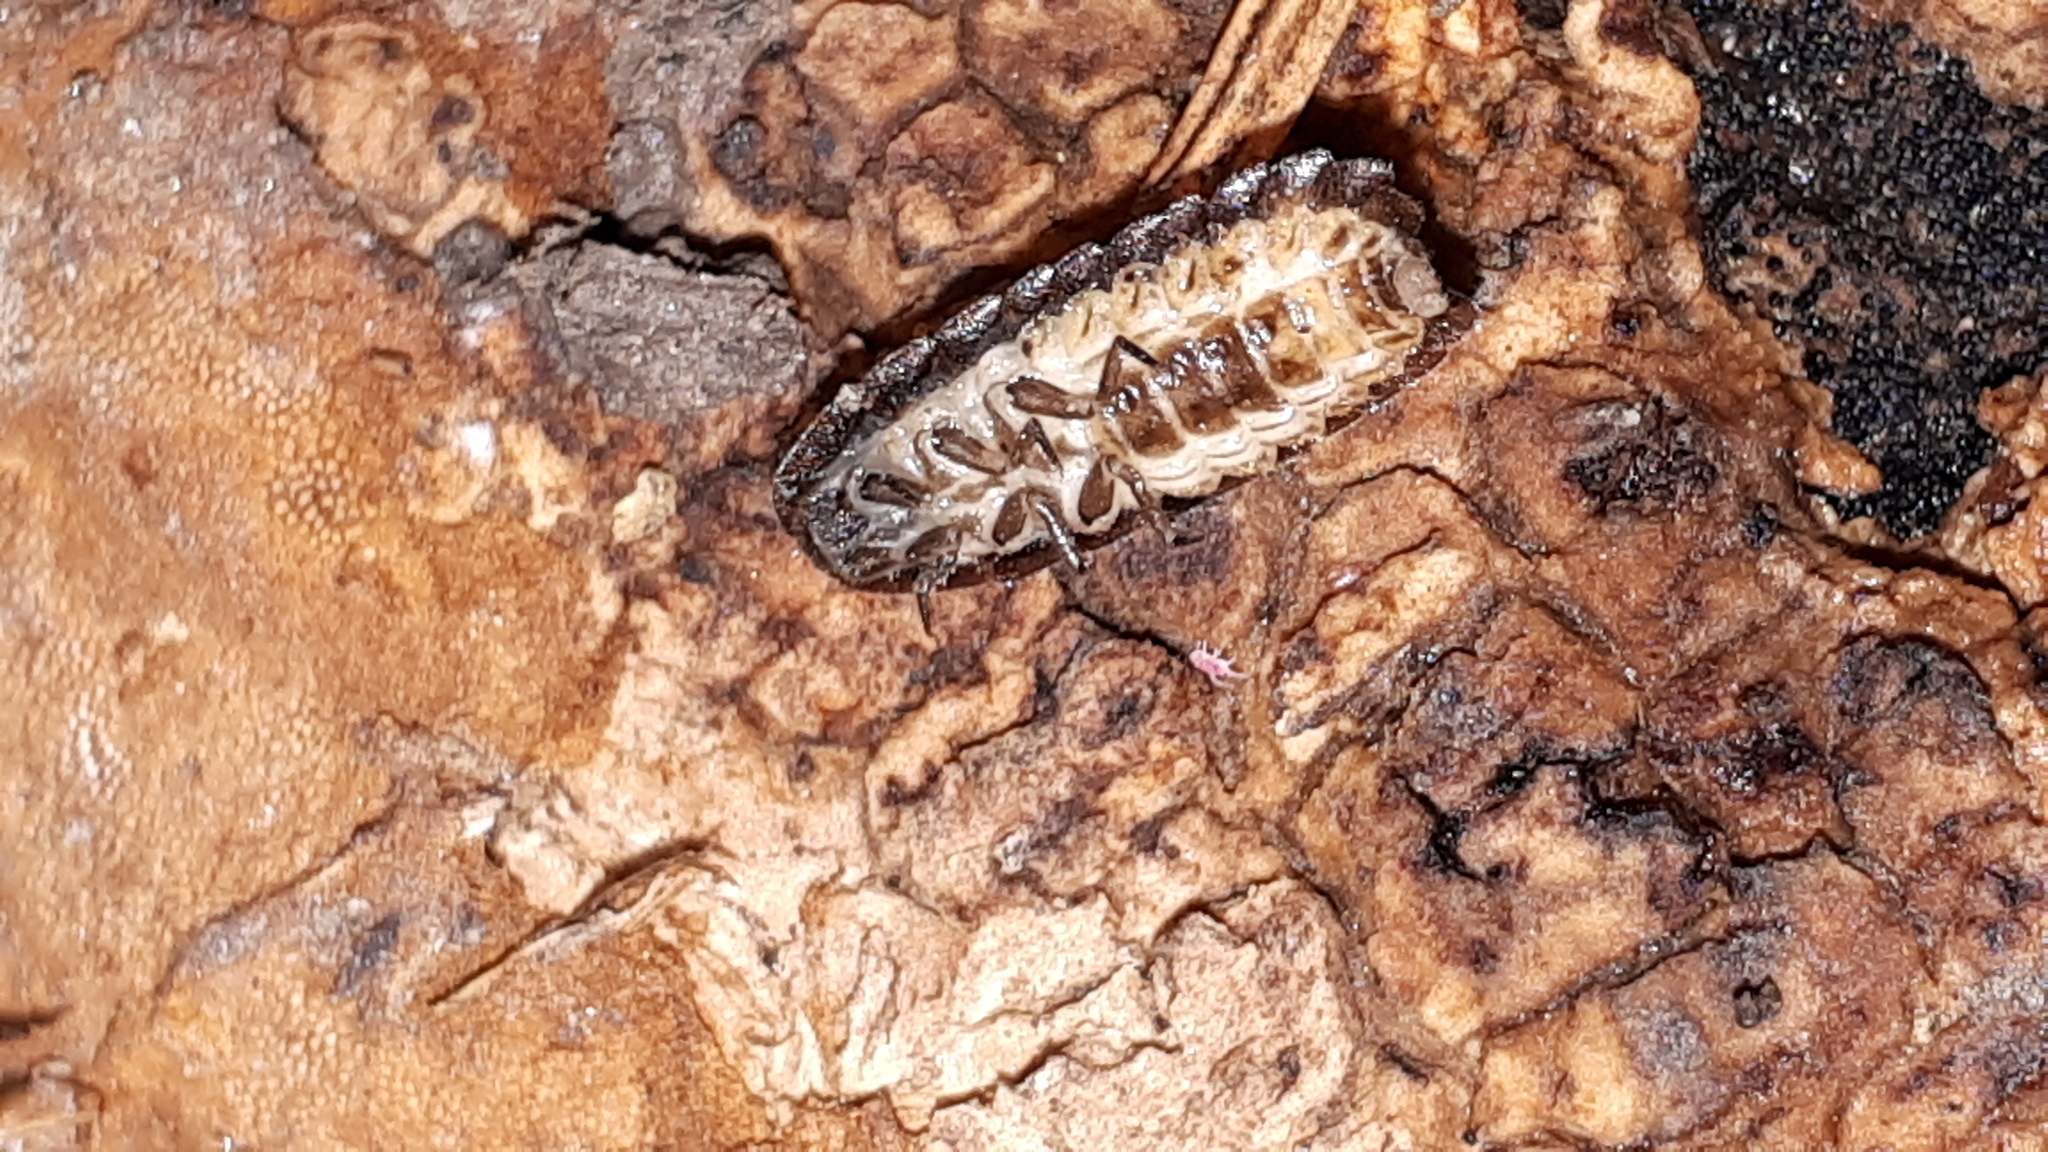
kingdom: Animalia
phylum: Arthropoda
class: Insecta
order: Coleoptera
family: Lampyridae
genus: Lamprohiza
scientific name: Lamprohiza splendidula
